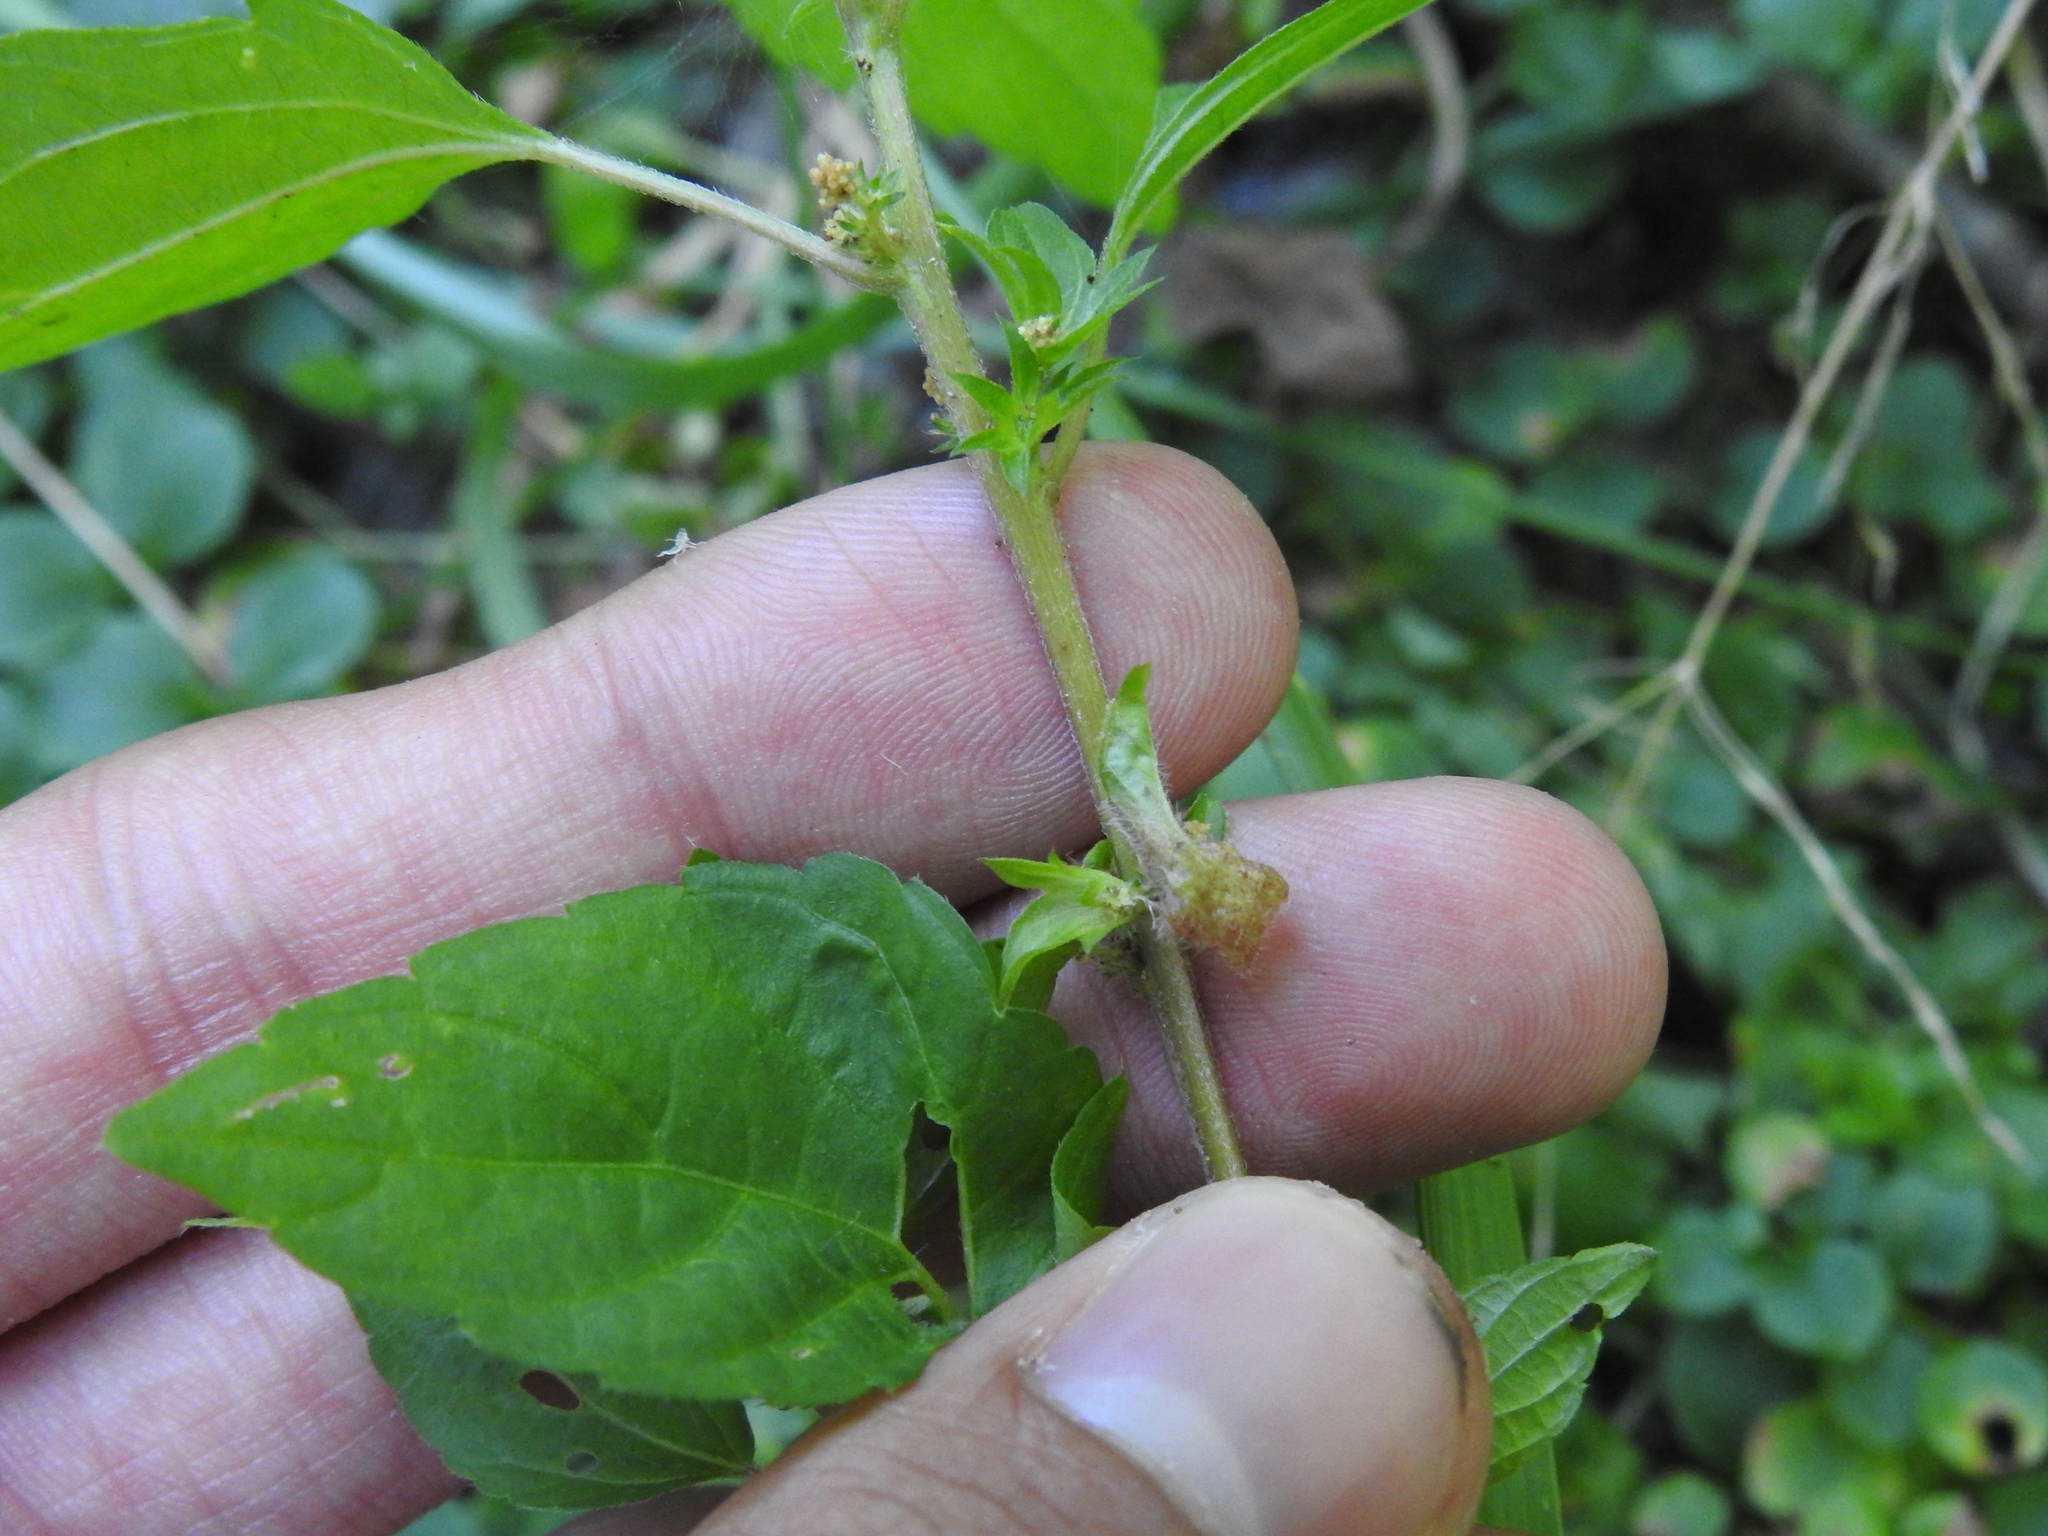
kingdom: Animalia
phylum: Arthropoda
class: Insecta
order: Diptera
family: Cecidomyiidae
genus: Resseliella
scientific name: Resseliella globosa
